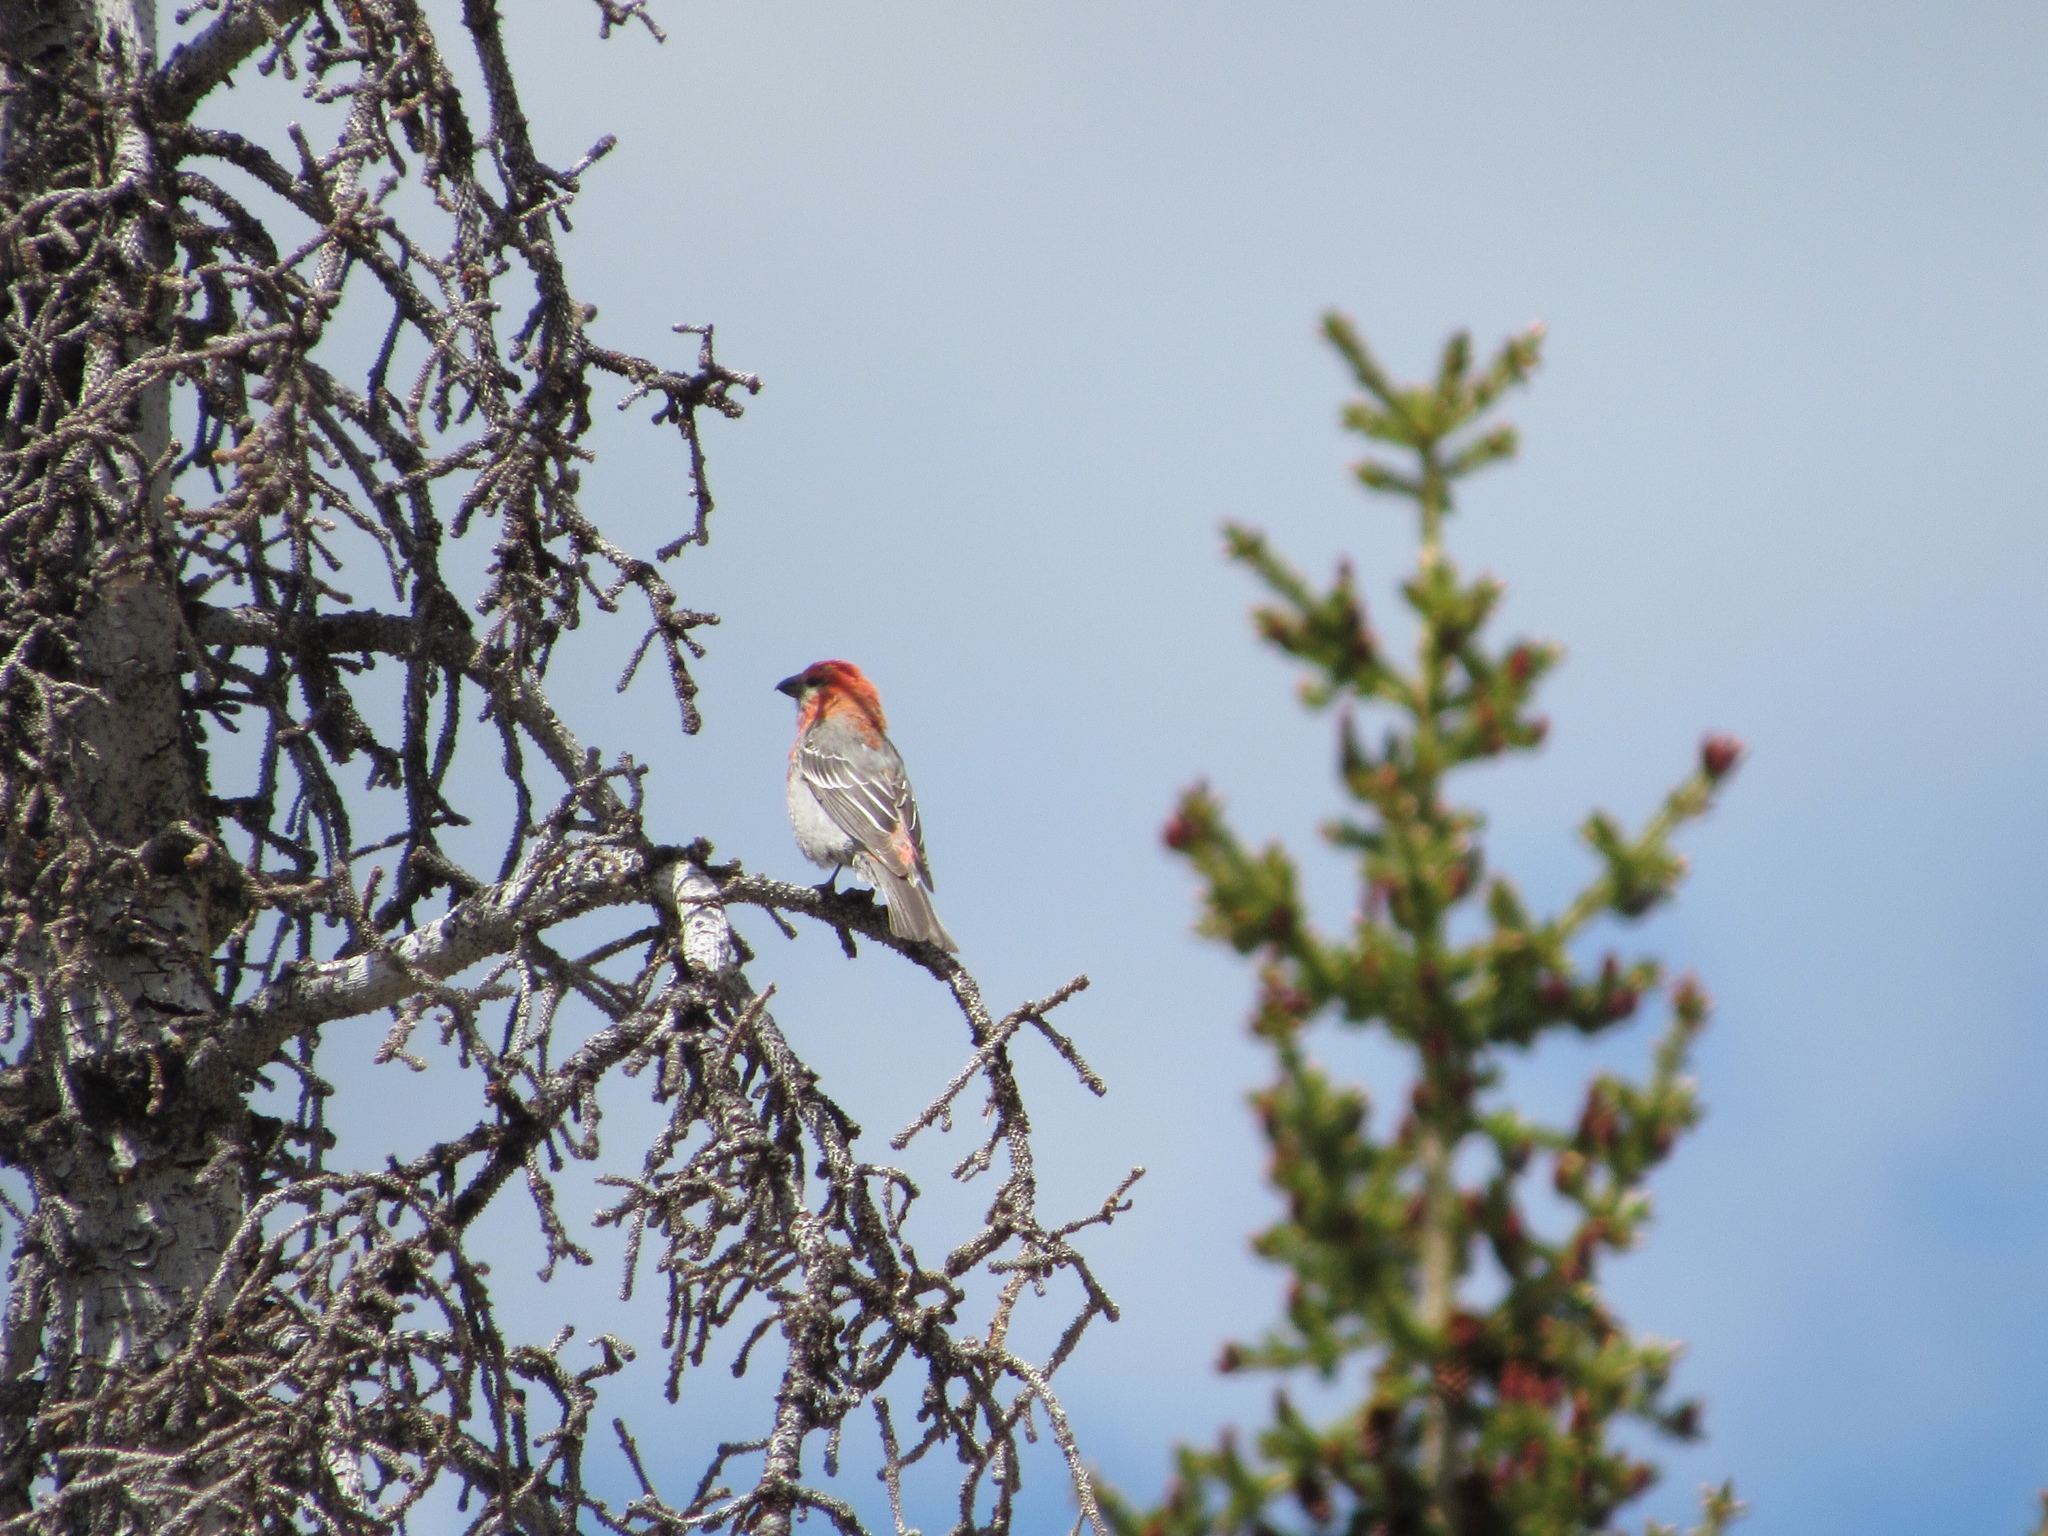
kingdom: Animalia
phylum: Chordata
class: Aves
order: Passeriformes
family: Fringillidae
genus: Pinicola
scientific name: Pinicola enucleator
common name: Pine grosbeak
